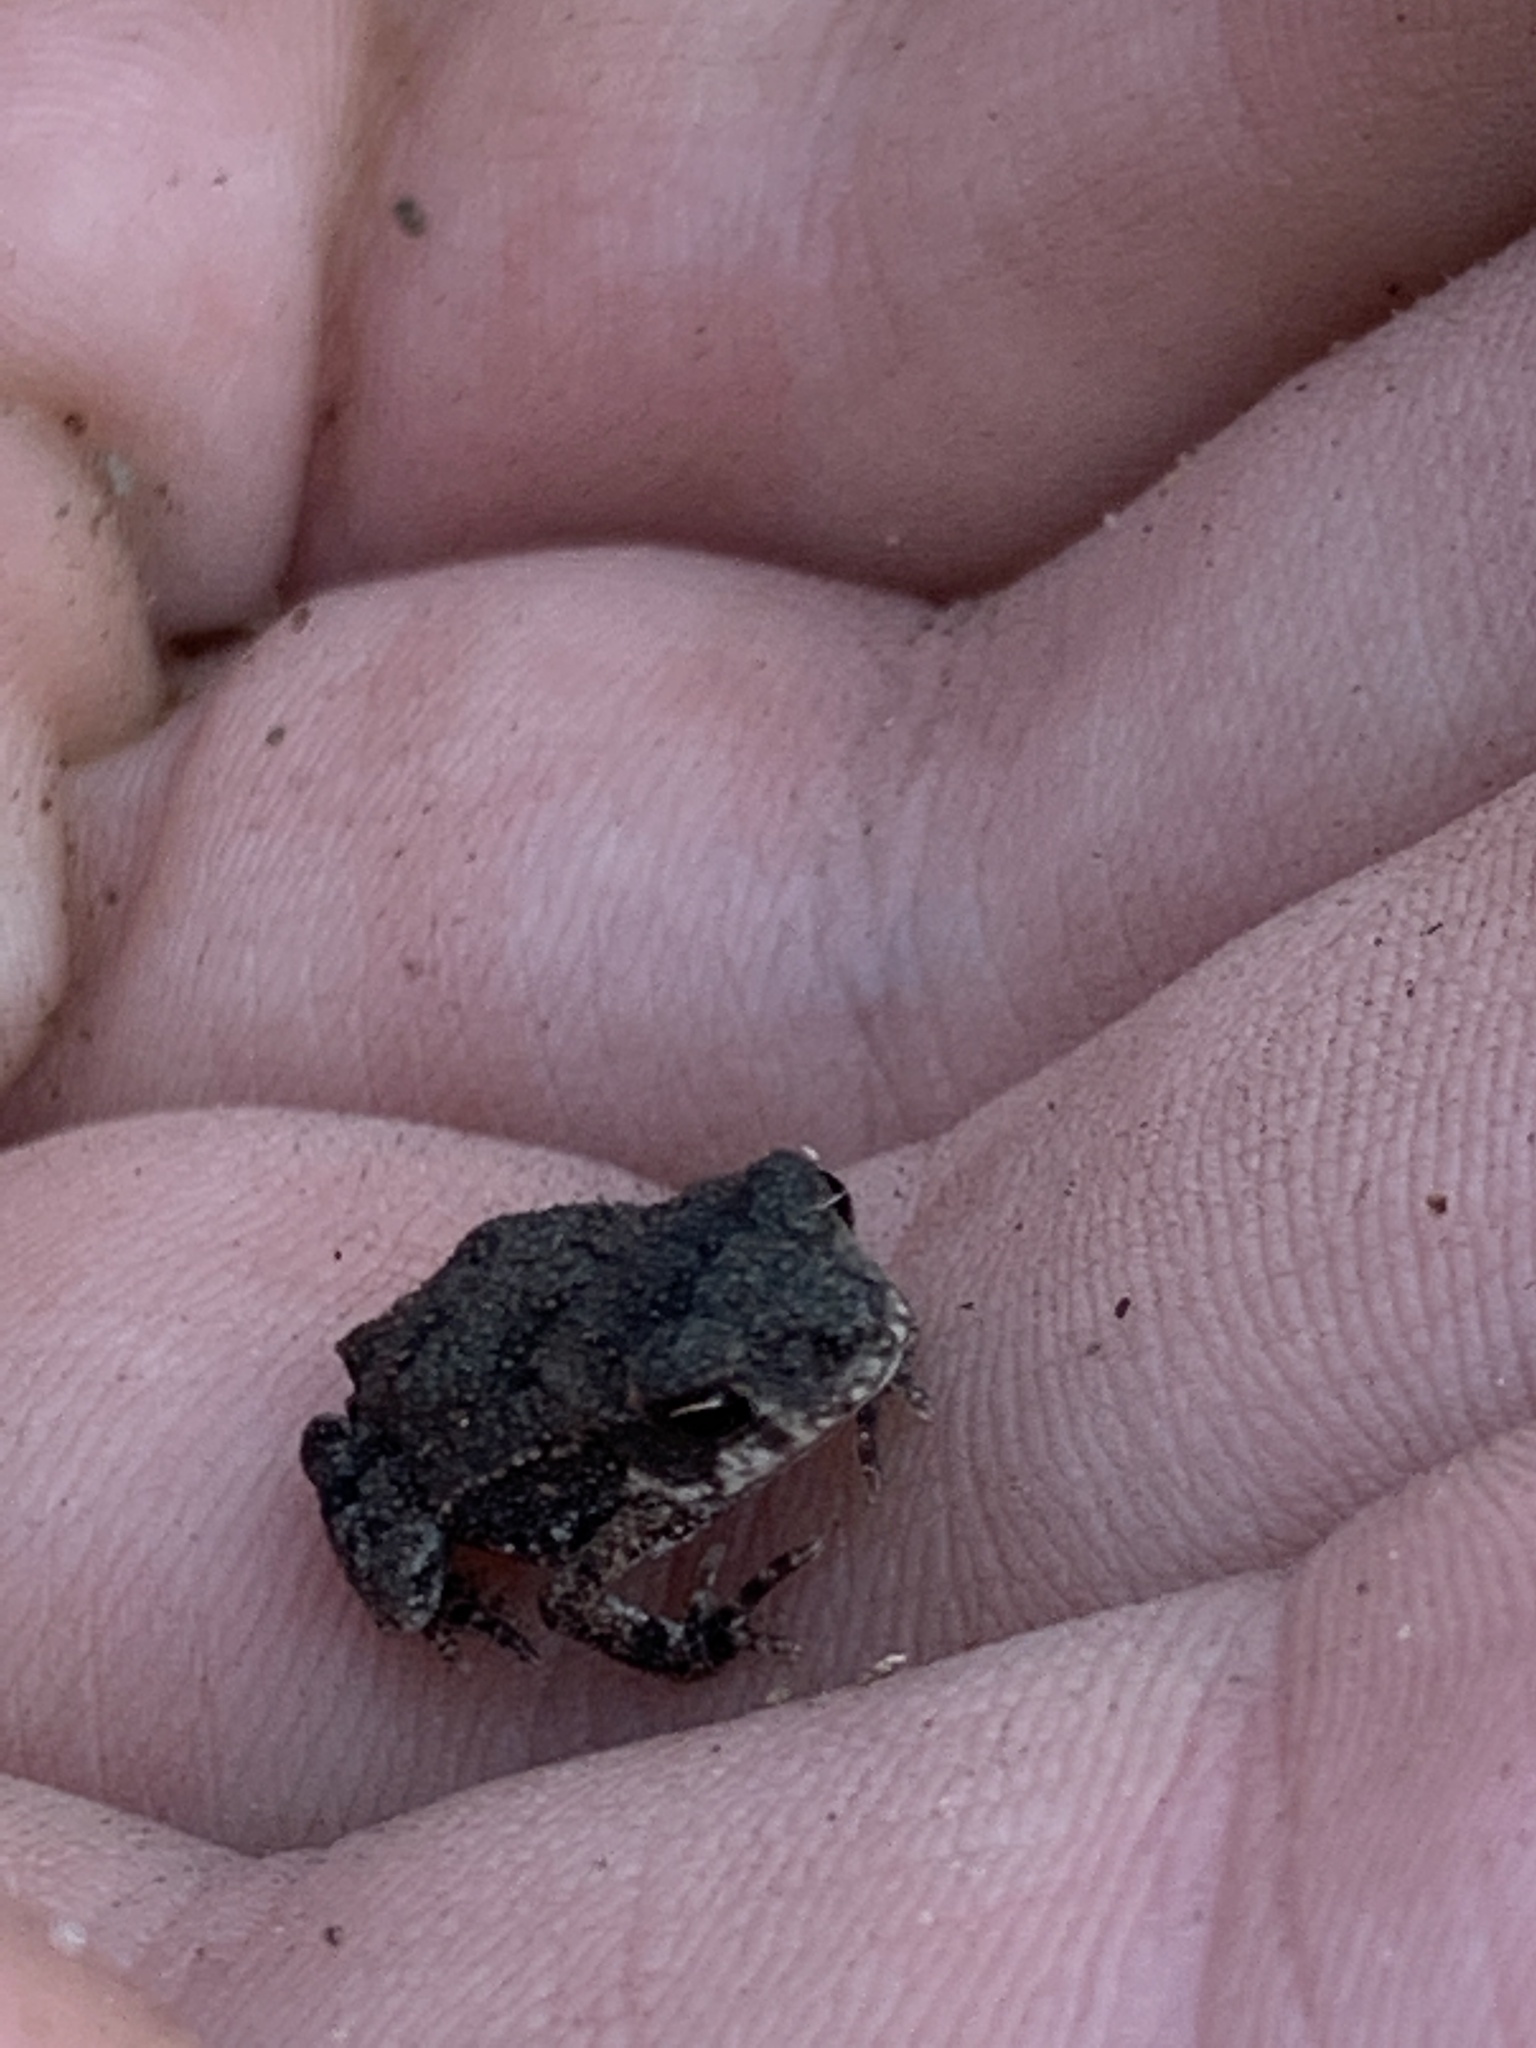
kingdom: Animalia
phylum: Chordata
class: Amphibia
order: Anura
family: Bufonidae
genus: Incilius
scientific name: Incilius nebulifer
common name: Gulf coast toad
